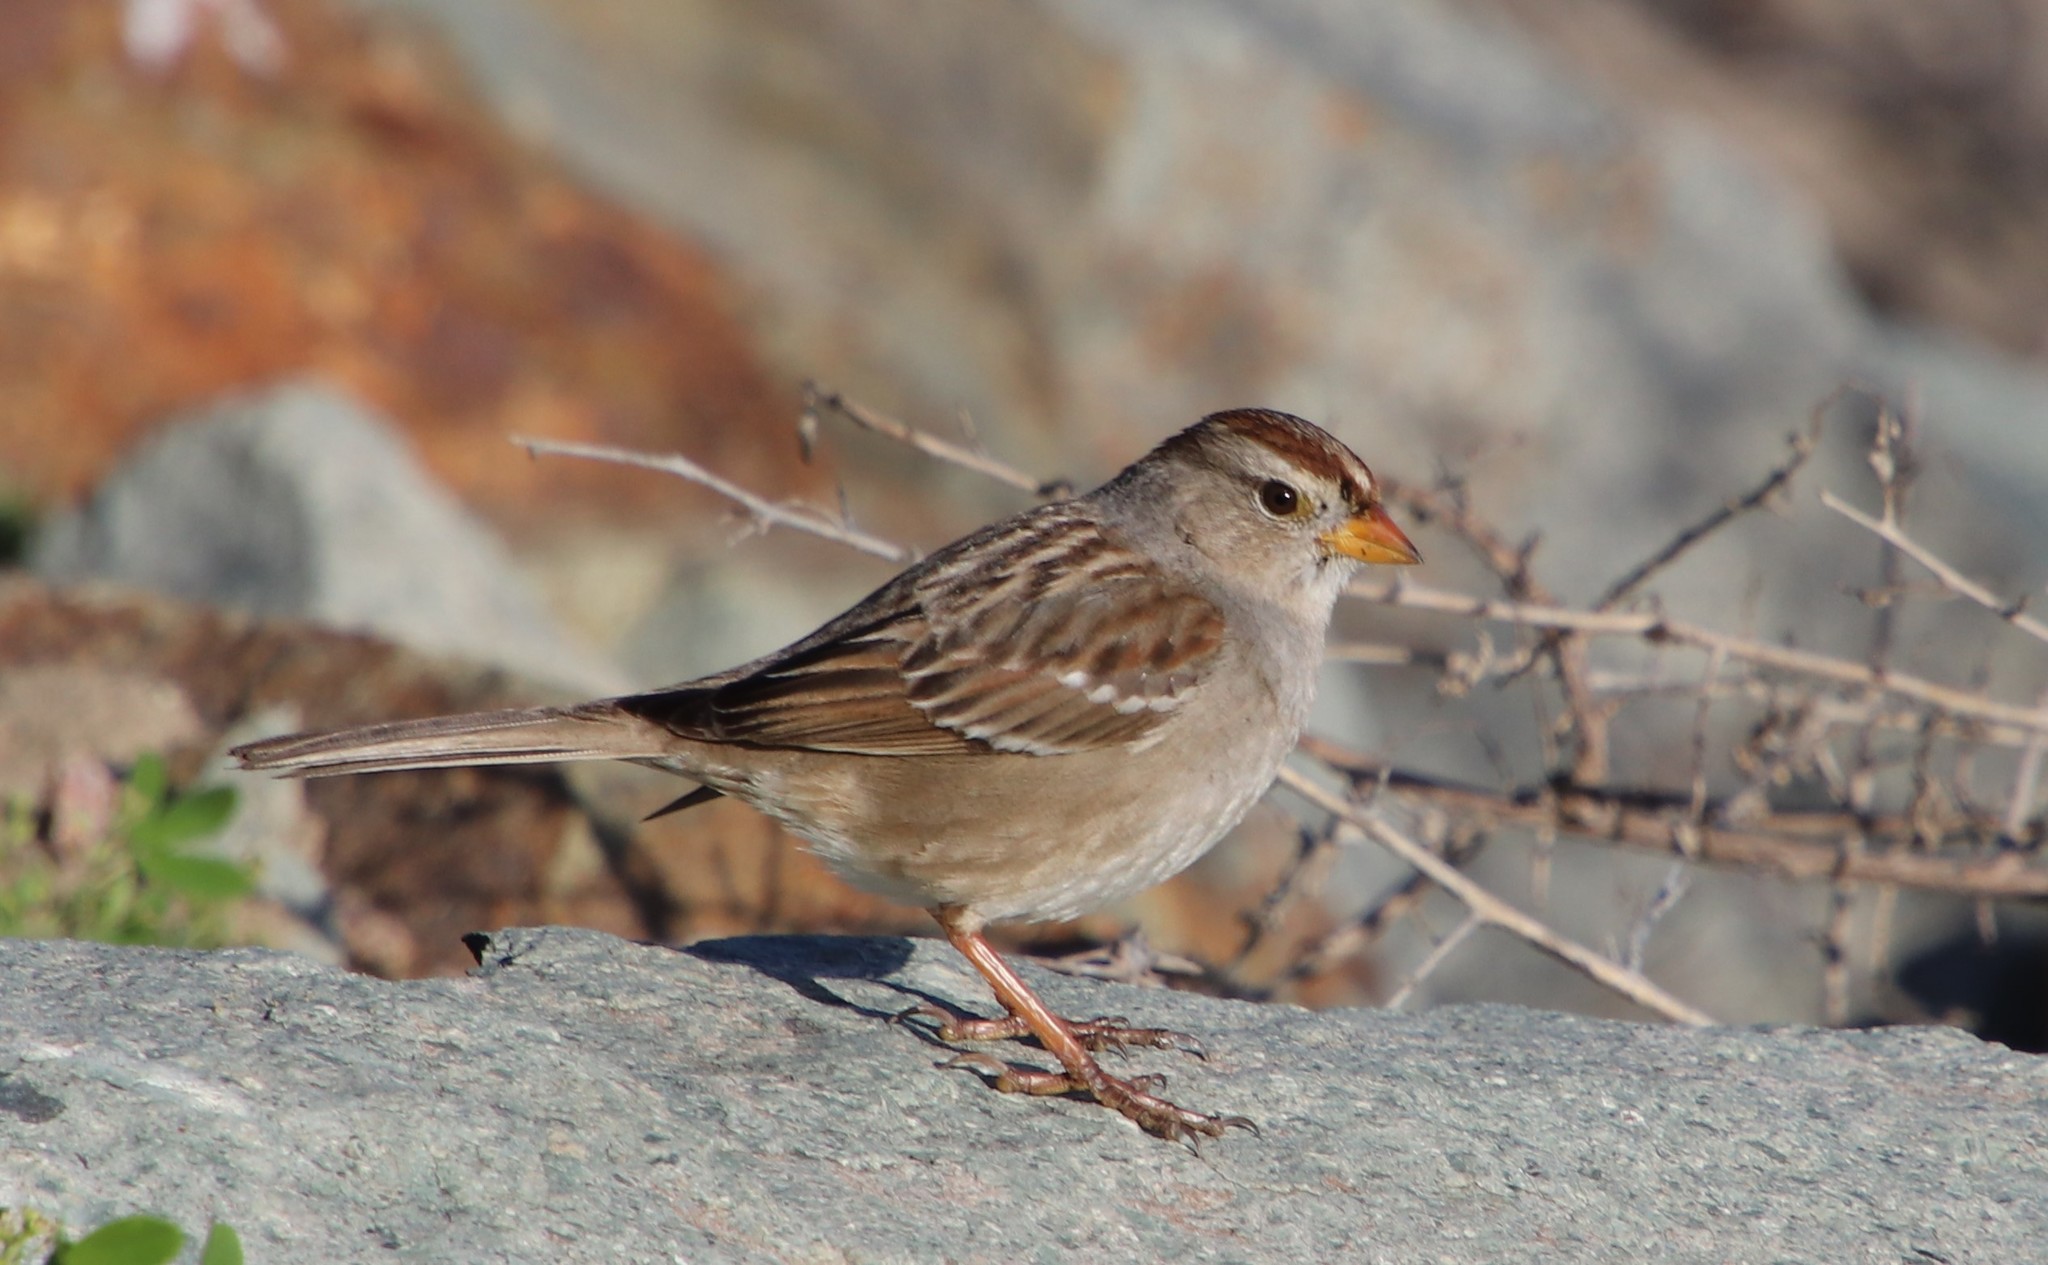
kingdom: Animalia
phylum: Chordata
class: Aves
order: Passeriformes
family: Passerellidae
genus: Zonotrichia
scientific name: Zonotrichia leucophrys
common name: White-crowned sparrow
